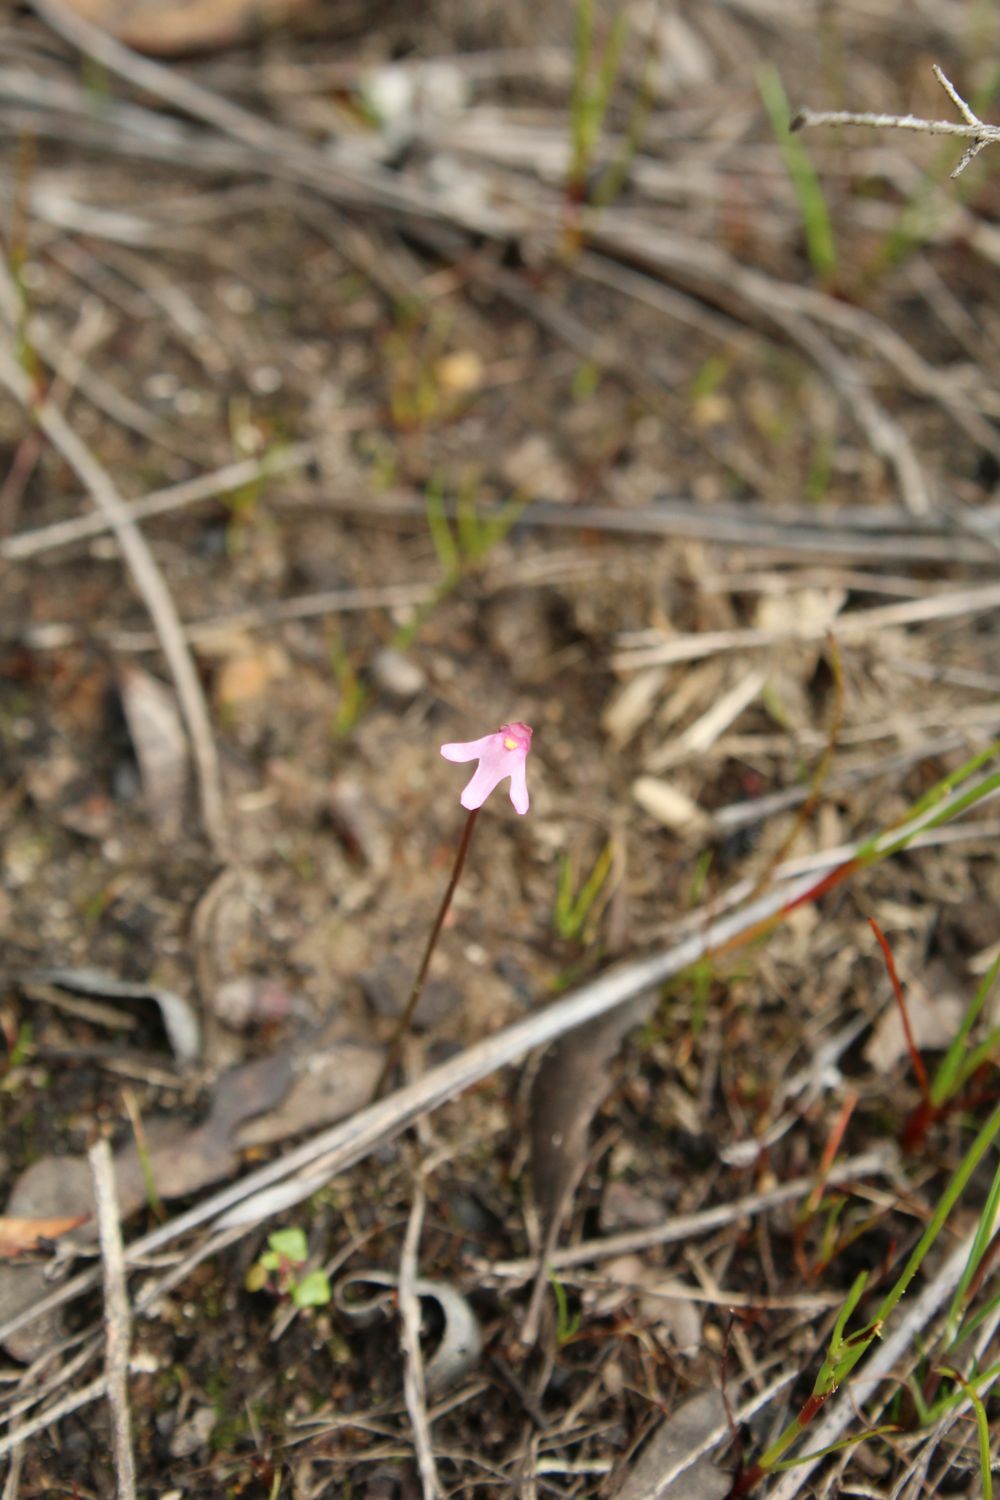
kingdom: Plantae
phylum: Tracheophyta
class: Magnoliopsida
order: Lamiales
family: Lentibulariaceae
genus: Utricularia
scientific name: Utricularia tenella
